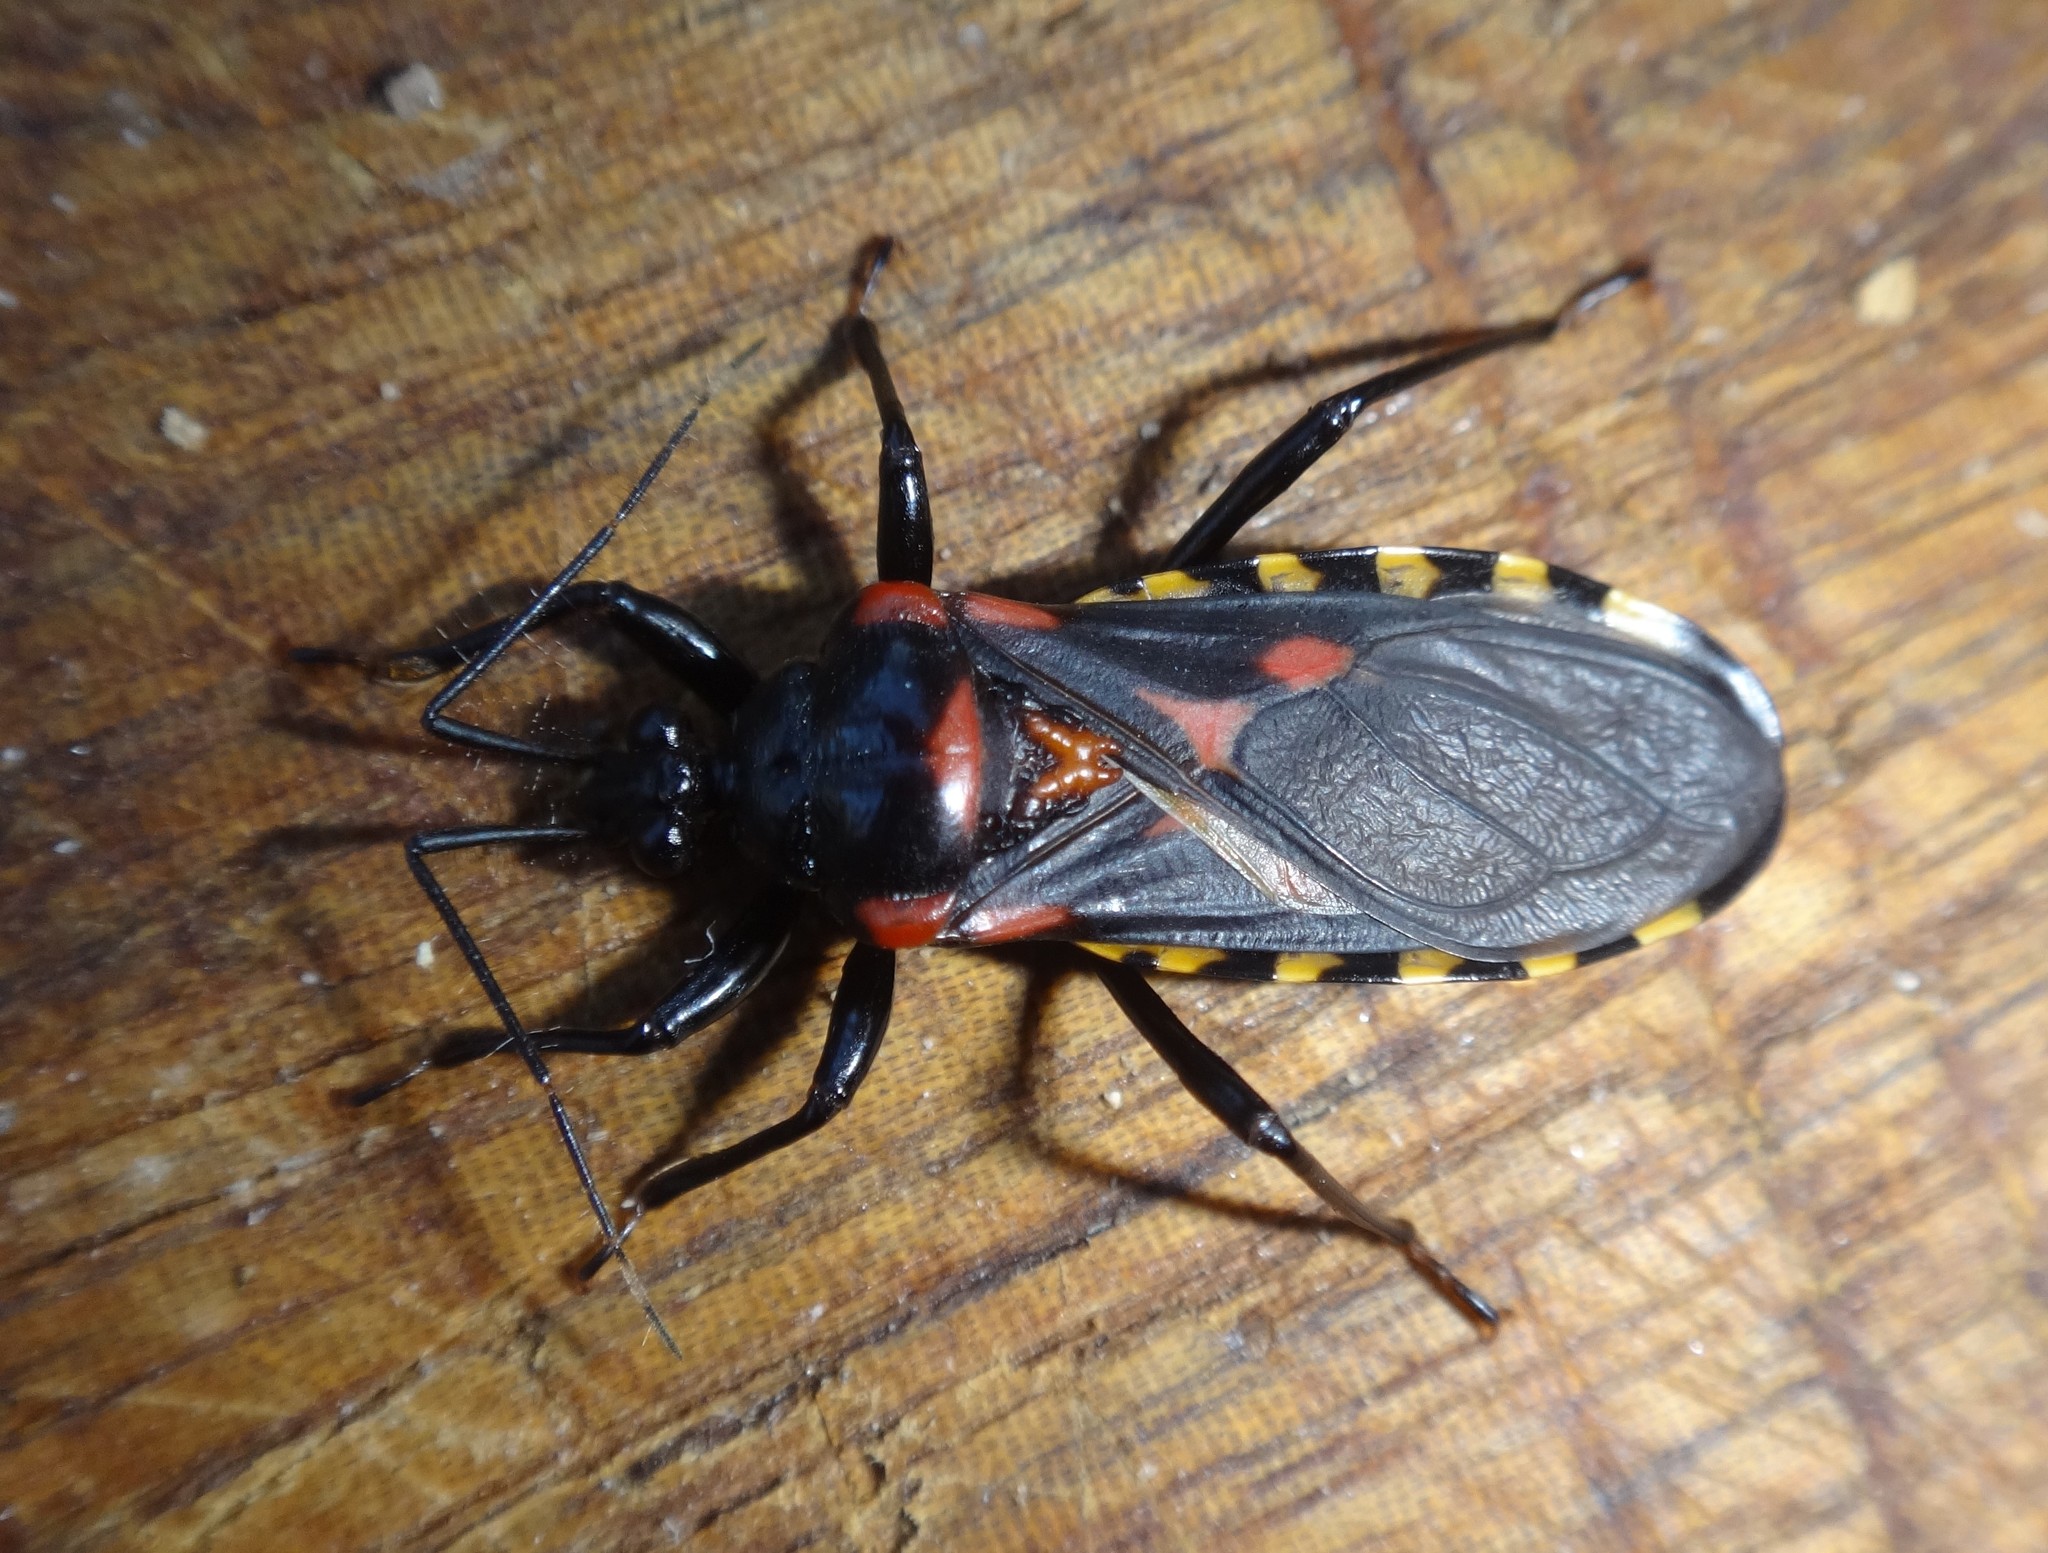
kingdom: Animalia
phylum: Arthropoda
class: Insecta
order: Hemiptera
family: Reduviidae
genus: Brontostoma
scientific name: Brontostoma notatum
